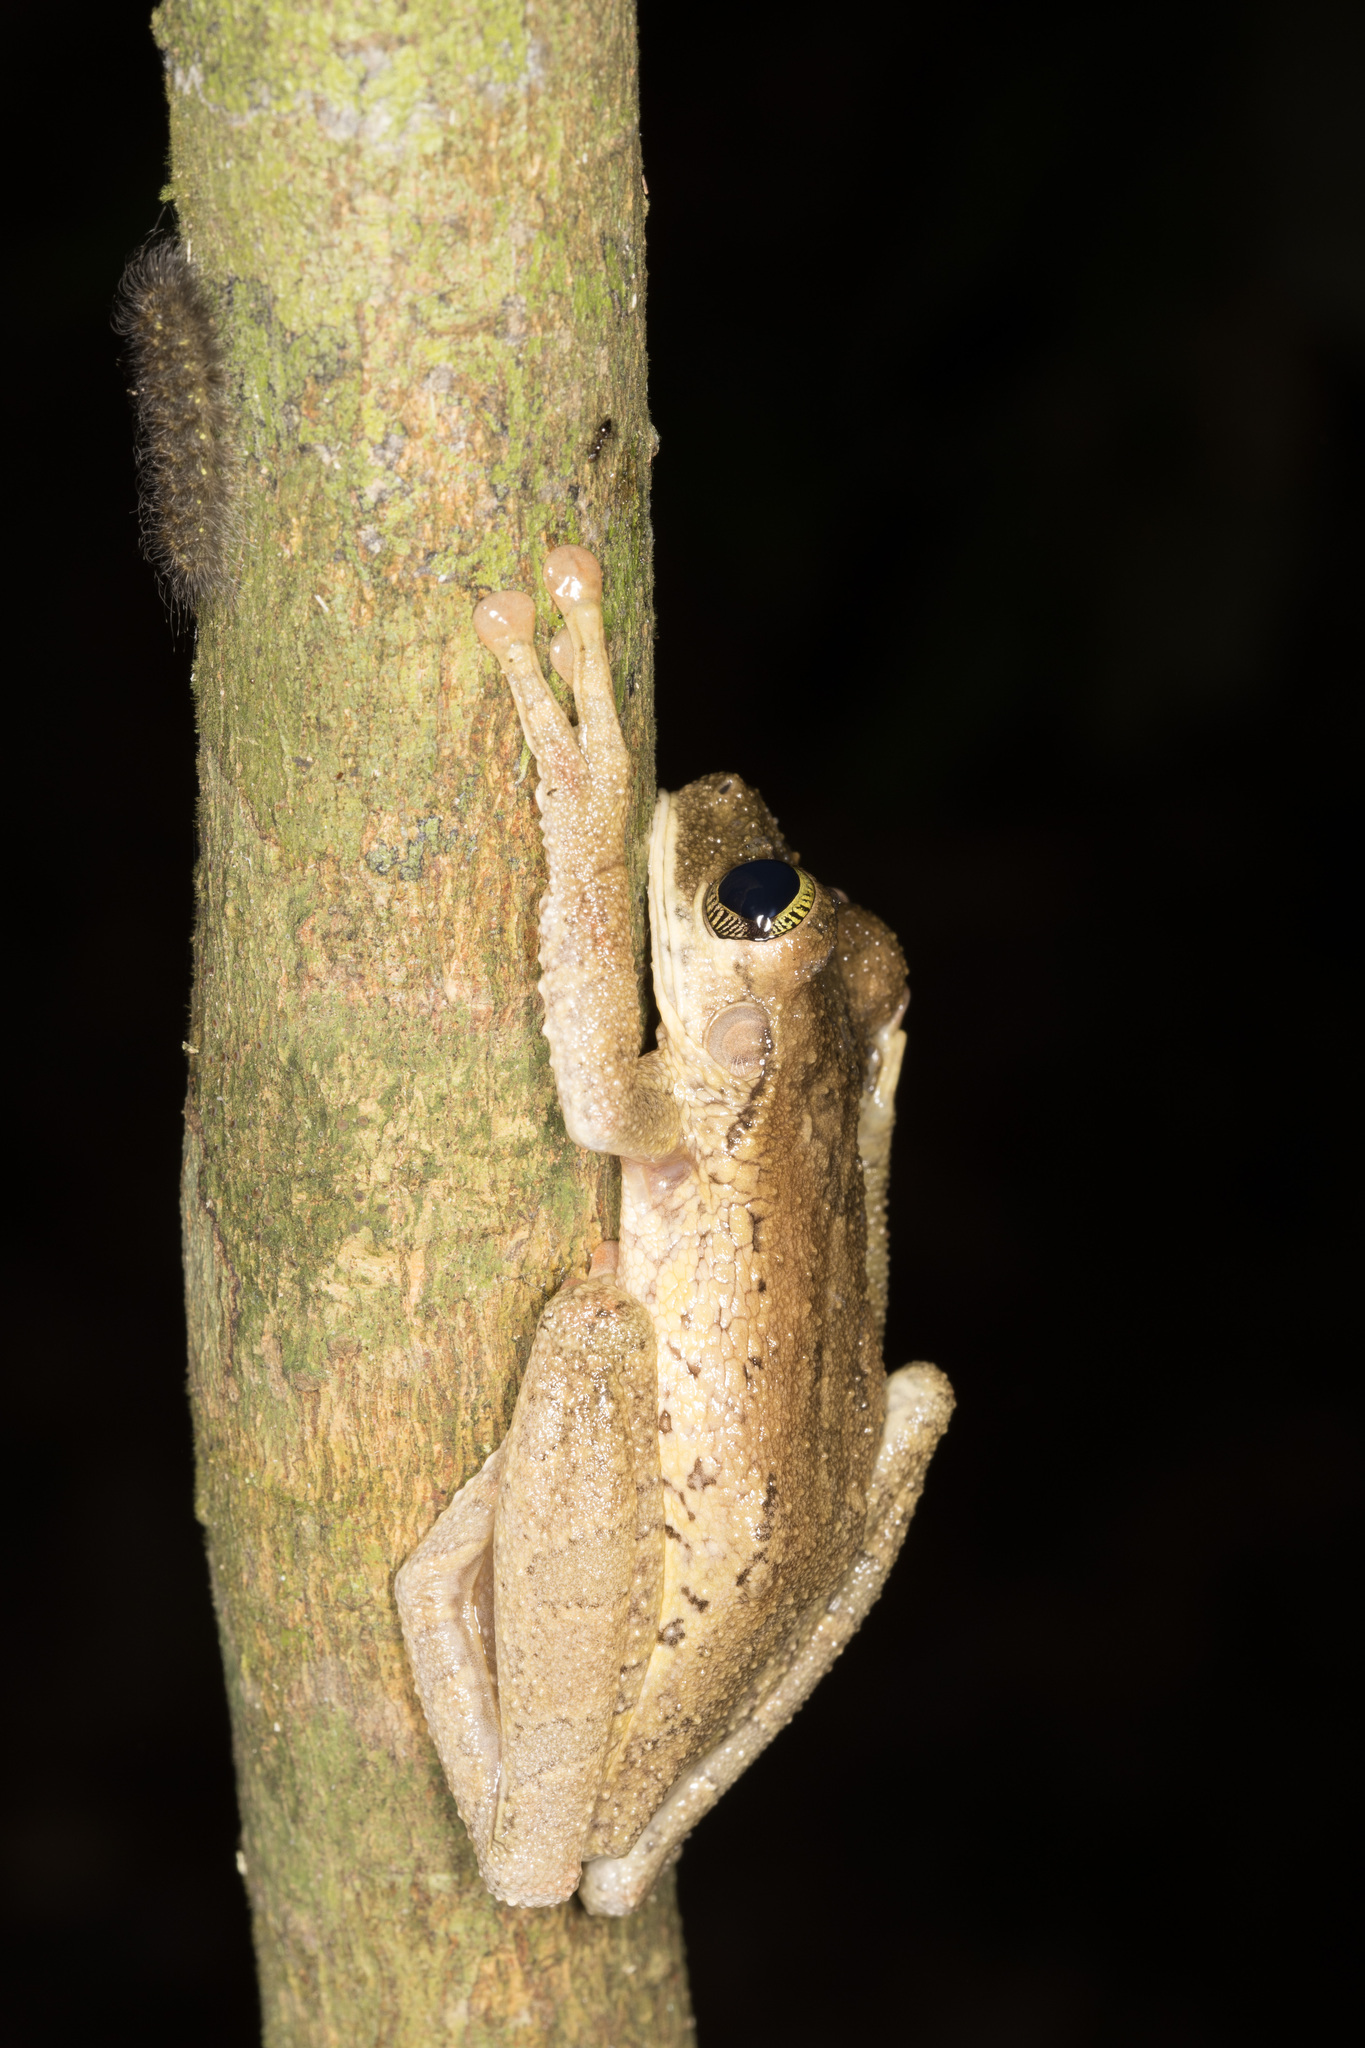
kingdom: Animalia
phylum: Chordata
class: Amphibia
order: Anura
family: Hylidae
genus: Osteocephalus
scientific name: Osteocephalus taurinus
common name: Manaus slender-legged treefrog
